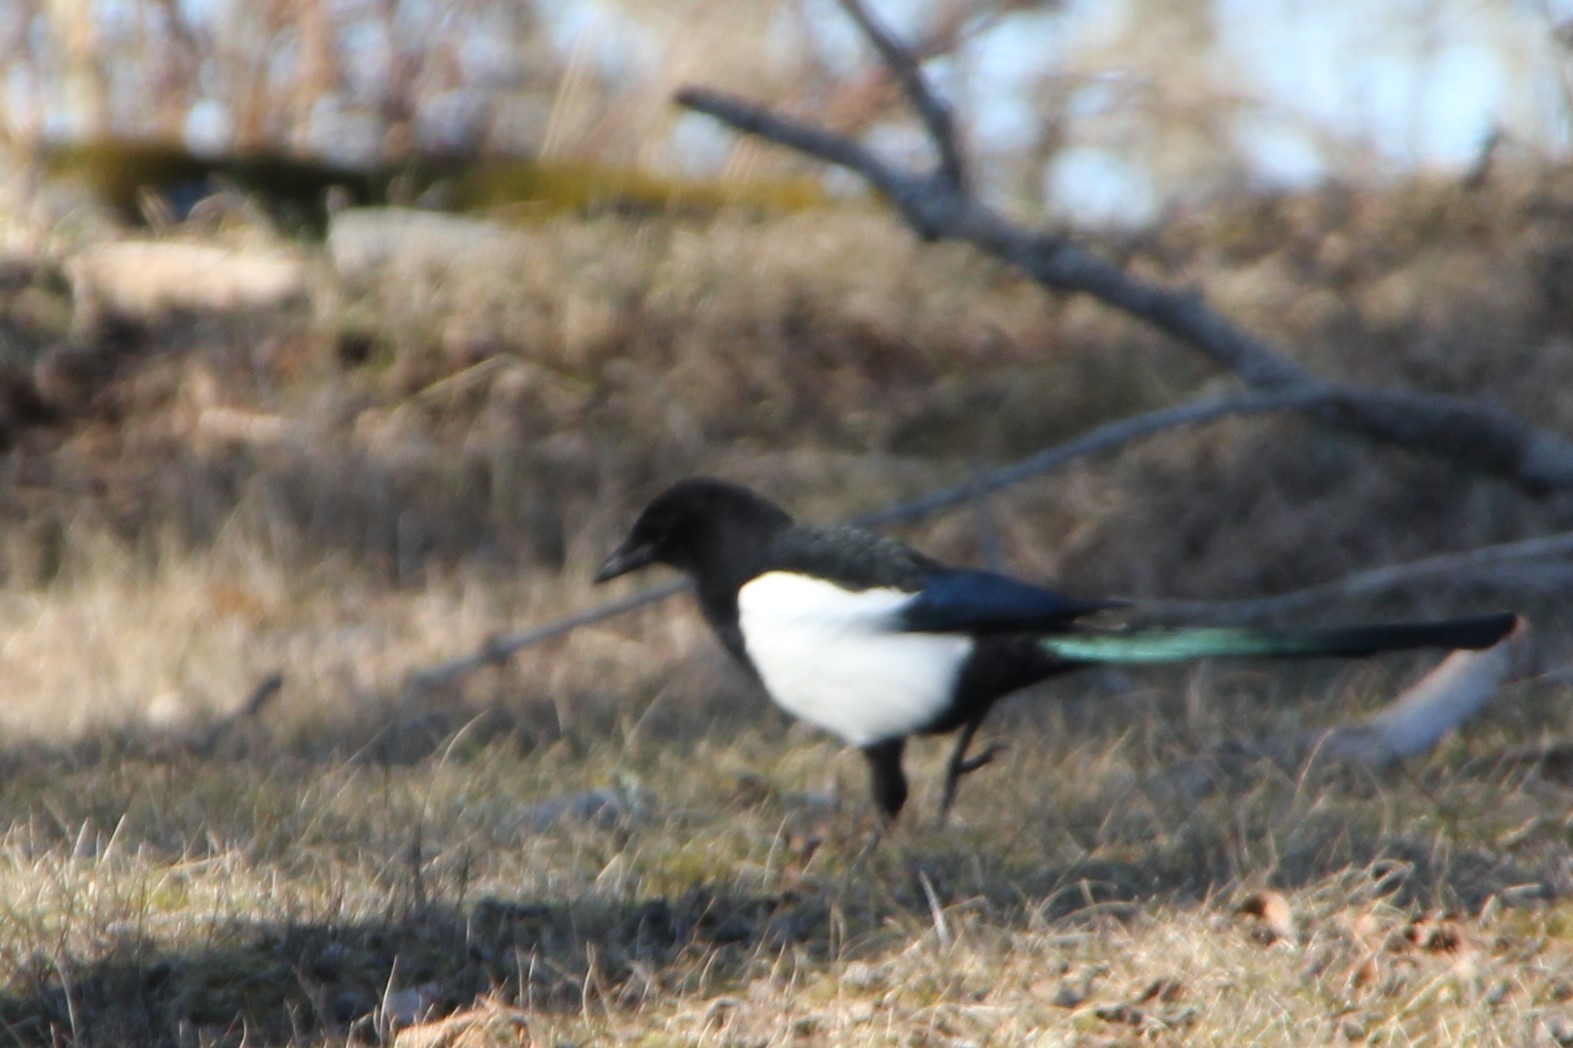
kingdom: Animalia
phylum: Chordata
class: Aves
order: Passeriformes
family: Corvidae
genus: Pica
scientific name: Pica pica
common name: Eurasian magpie
